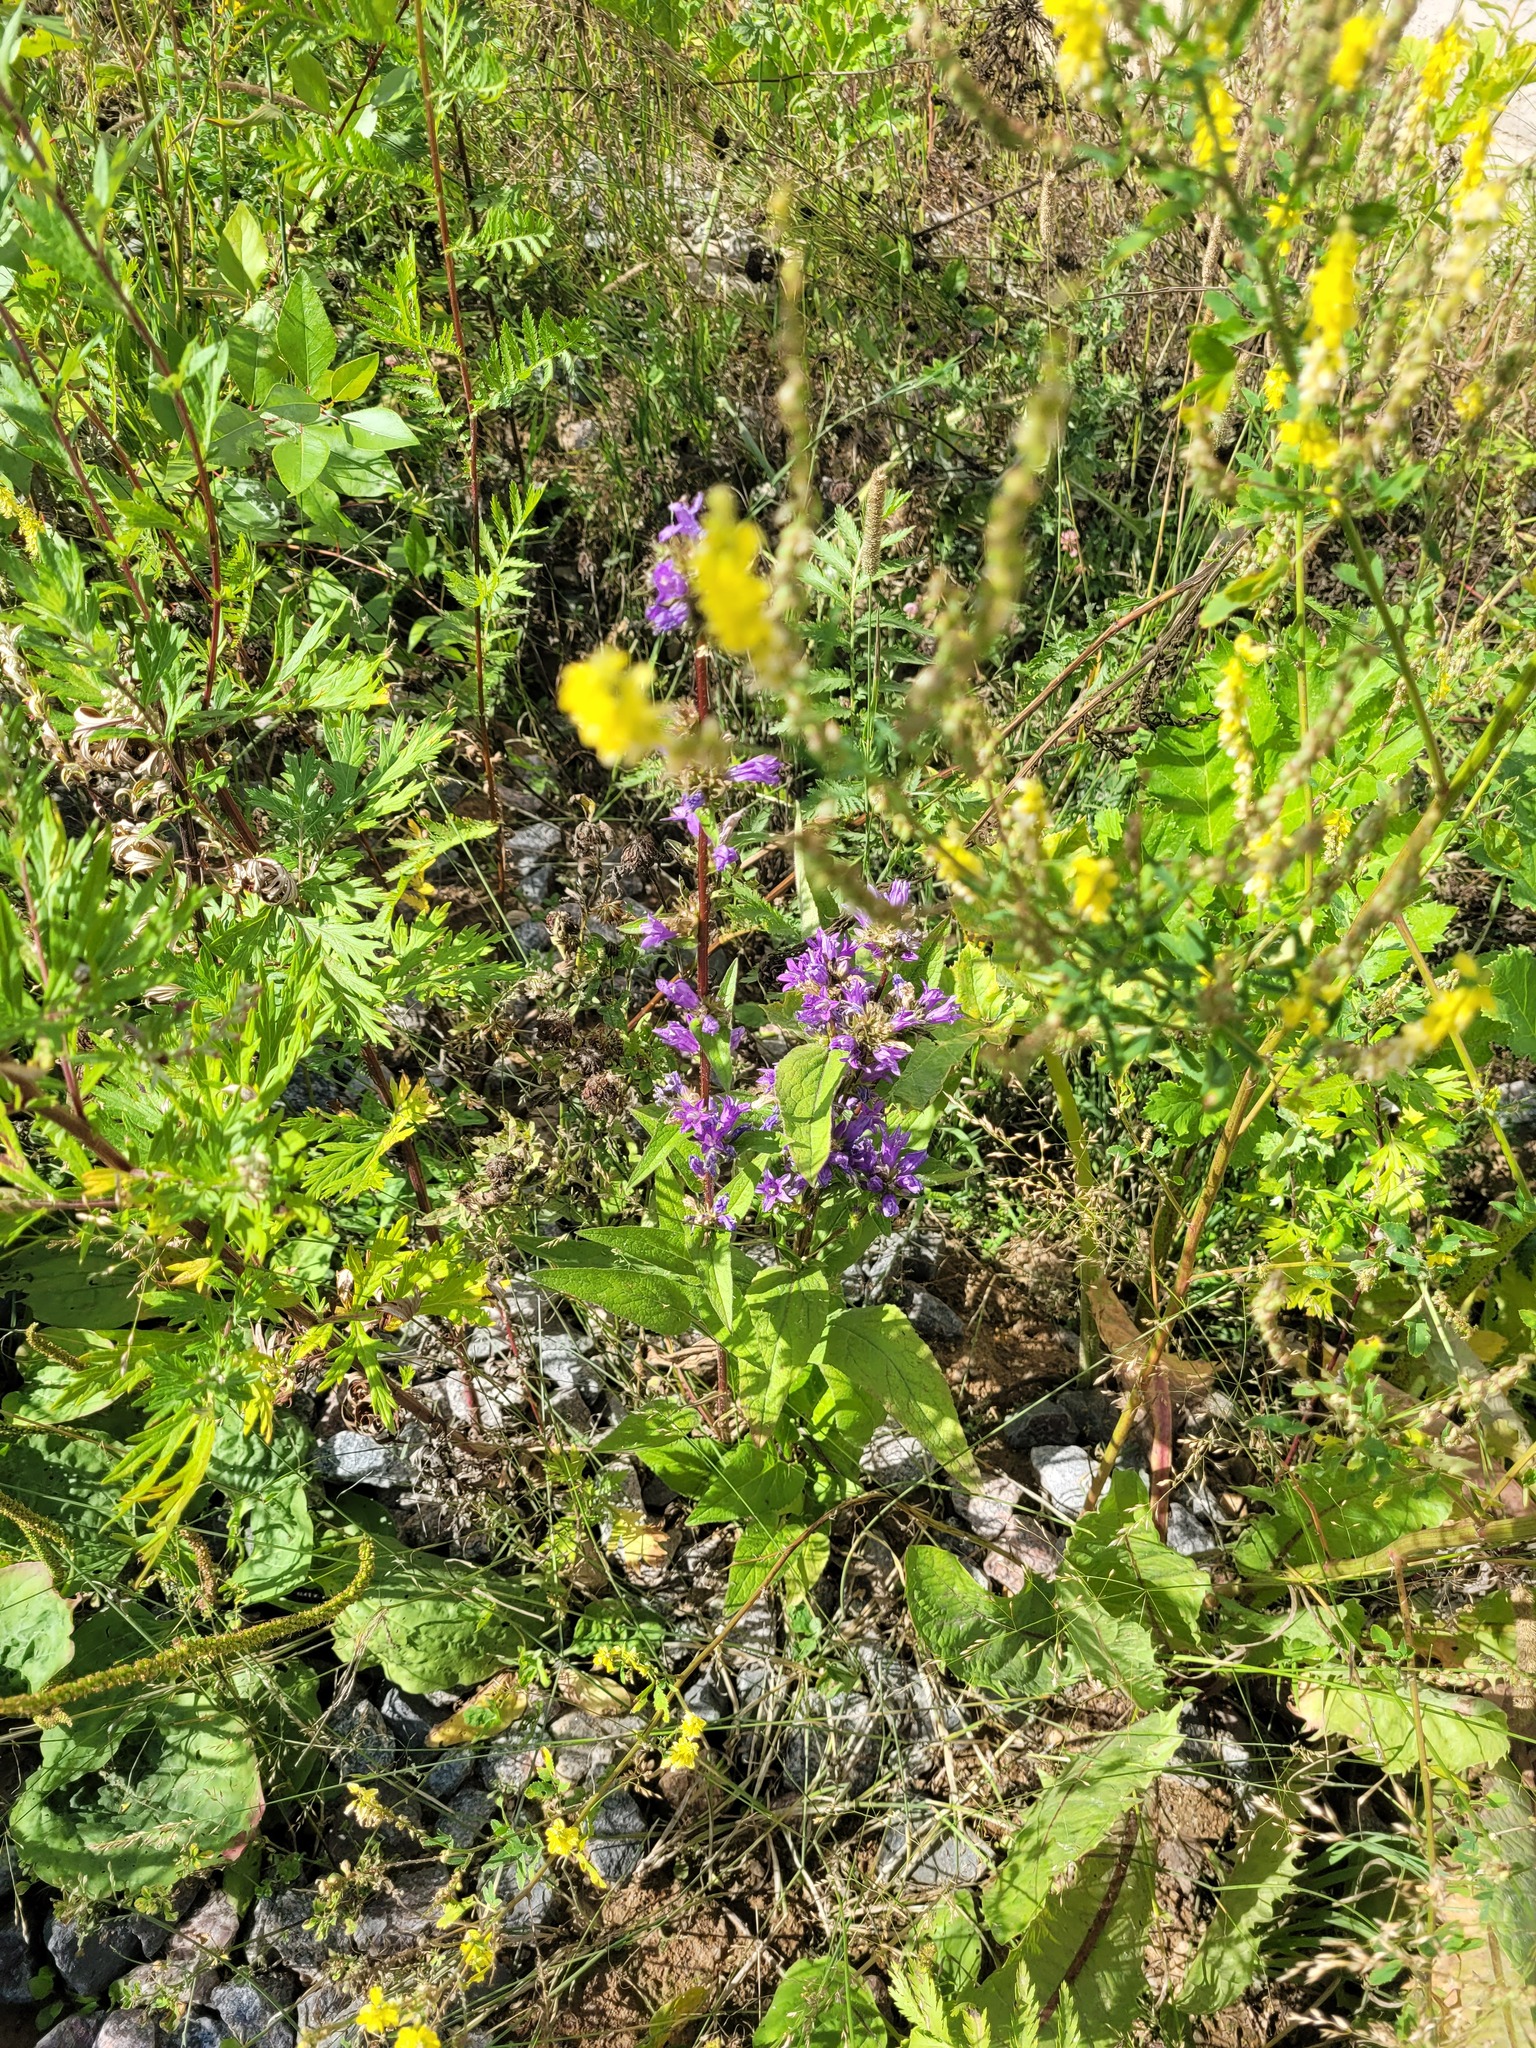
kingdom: Plantae
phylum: Tracheophyta
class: Magnoliopsida
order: Asterales
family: Campanulaceae
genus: Campanula
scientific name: Campanula glomerata
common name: Clustered bellflower
